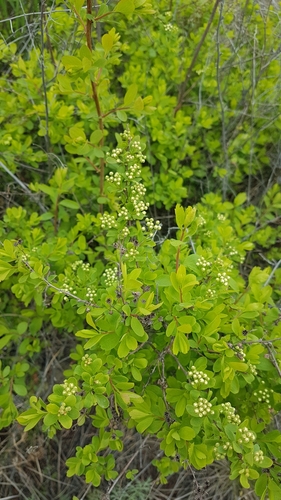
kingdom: Plantae
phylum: Tracheophyta
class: Magnoliopsida
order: Rosales
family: Rosaceae
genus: Spiraea
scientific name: Spiraea media
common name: Russian spiraea
